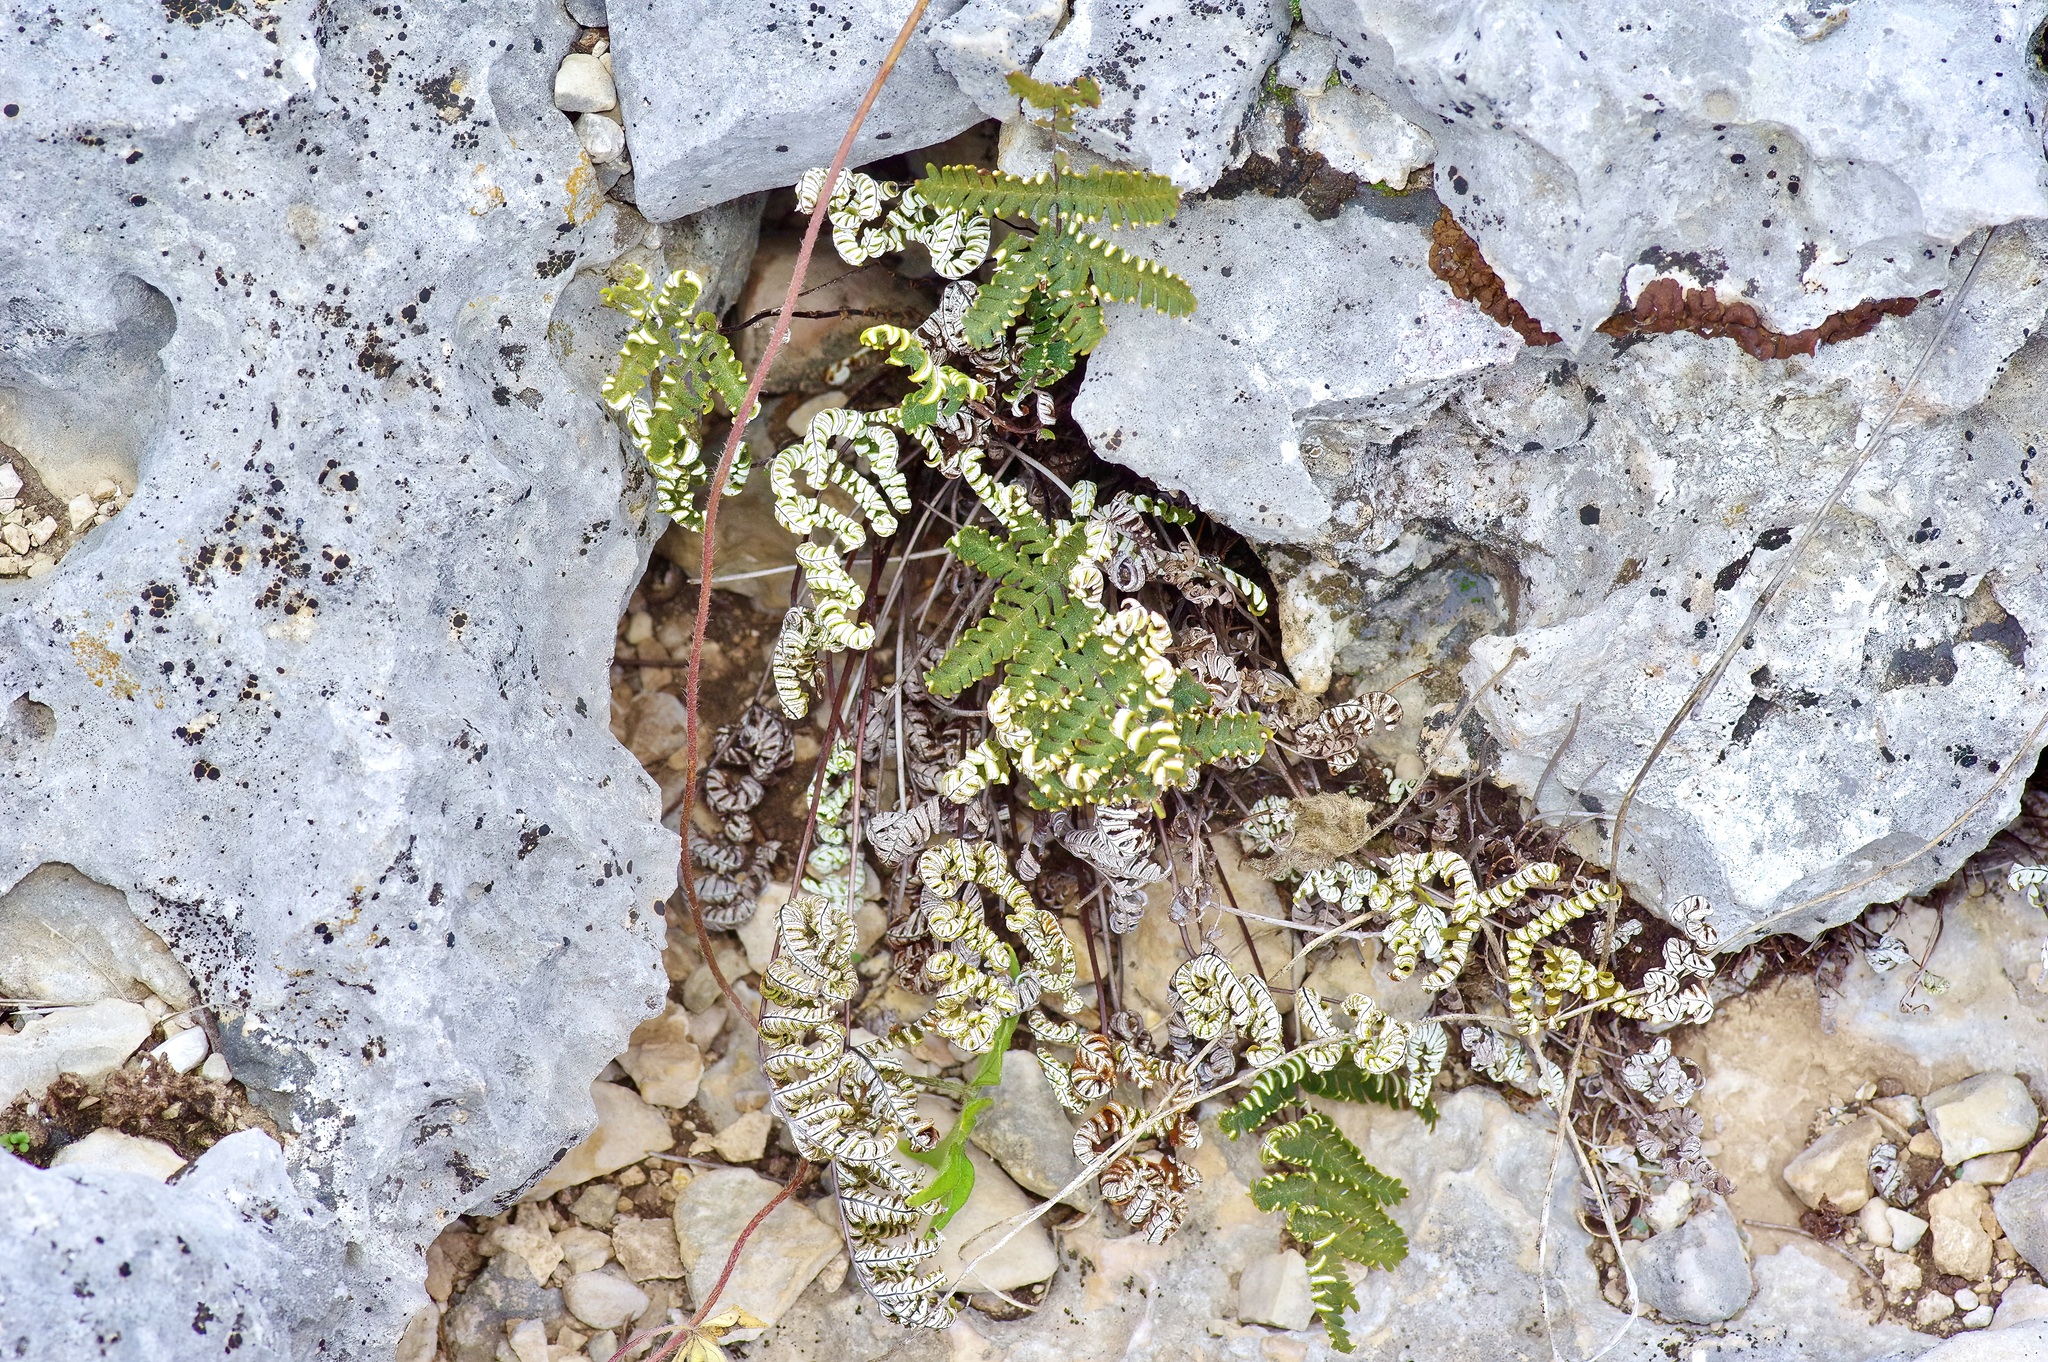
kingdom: Plantae
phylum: Tracheophyta
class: Polypodiopsida
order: Polypodiales
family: Pteridaceae
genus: Notholaena
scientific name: Notholaena candida
